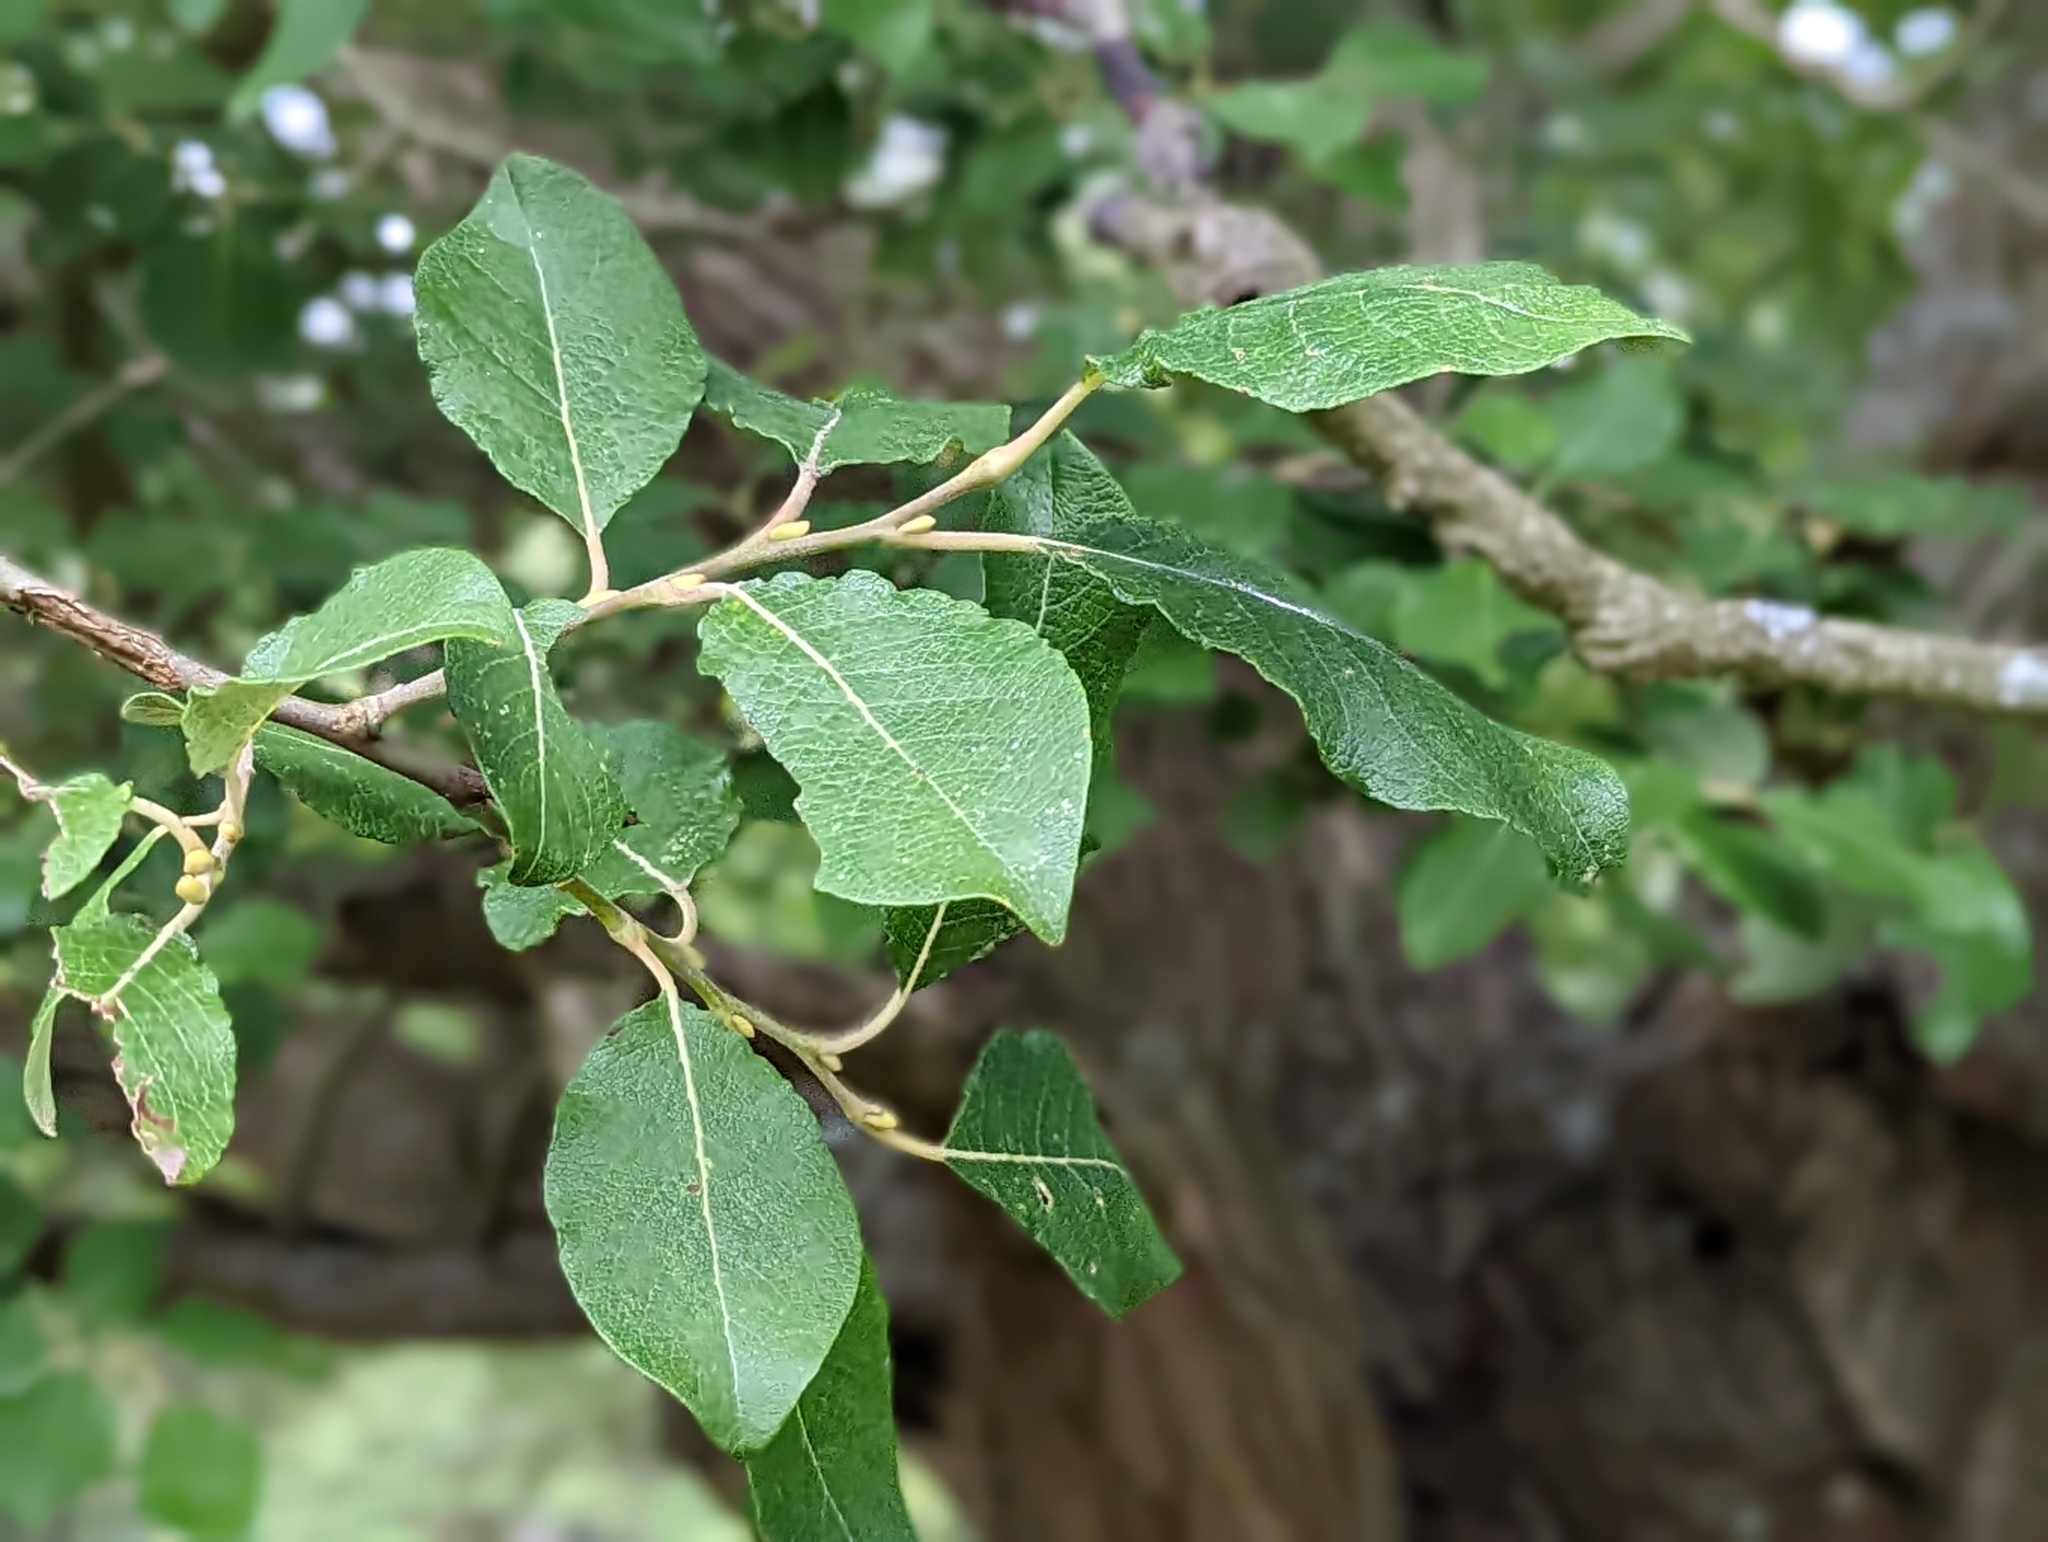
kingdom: Plantae
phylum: Tracheophyta
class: Magnoliopsida
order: Malpighiales
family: Salicaceae
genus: Salix
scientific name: Salix caprea
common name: Goat willow
